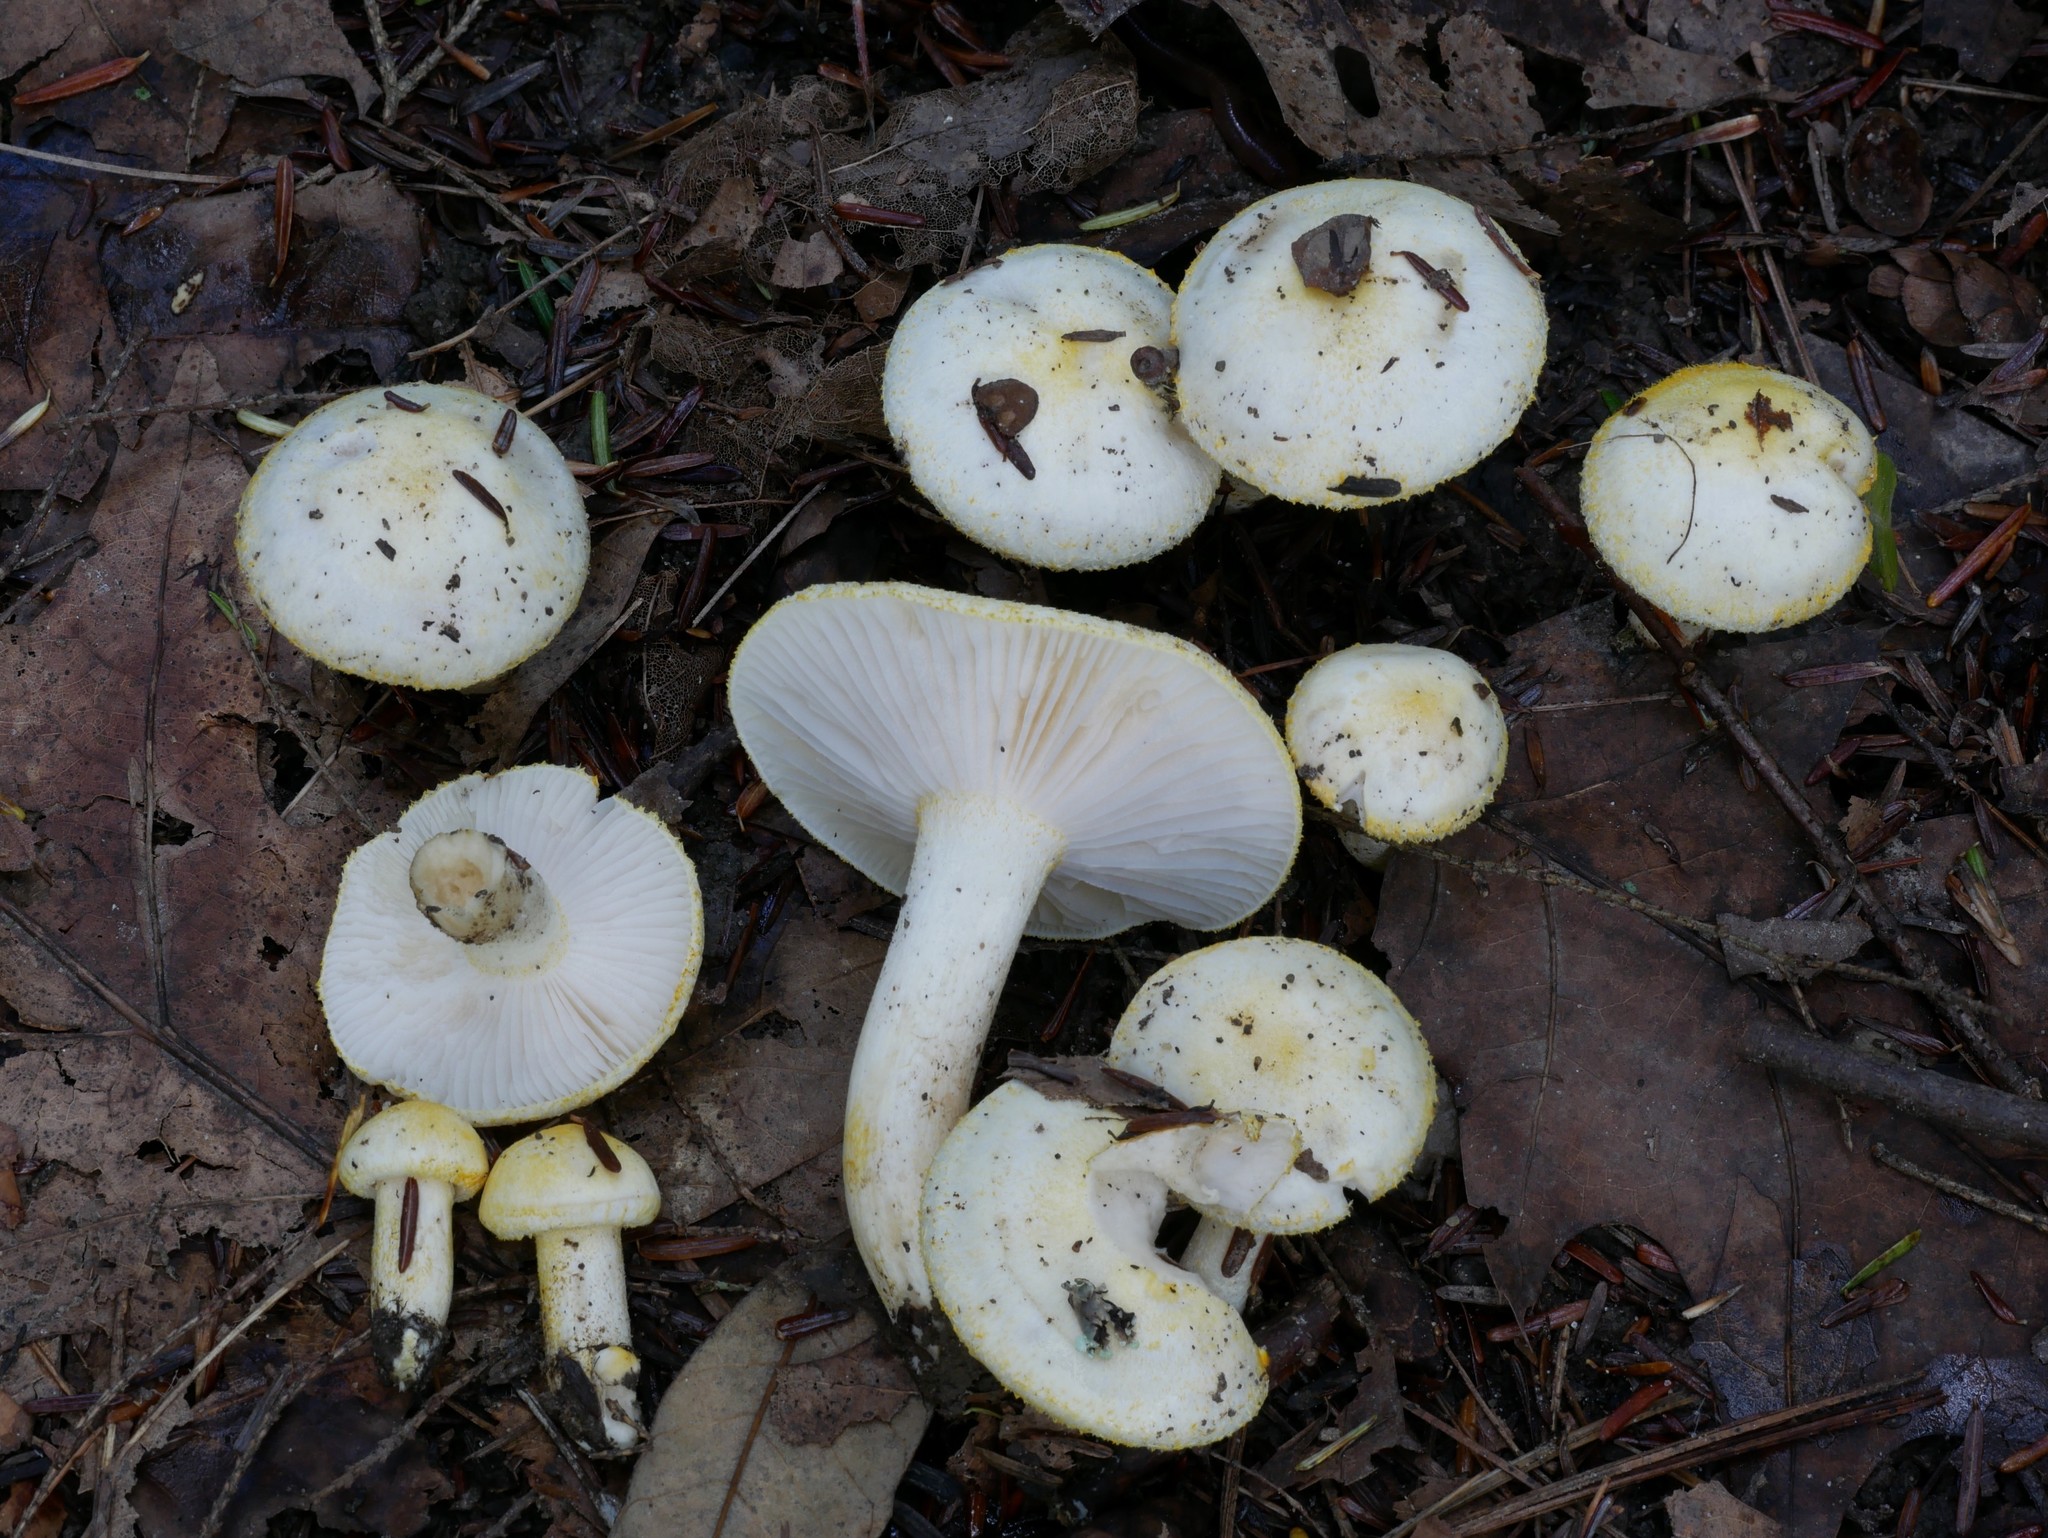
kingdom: Fungi
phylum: Basidiomycota
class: Agaricomycetes
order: Agaricales
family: Hygrophoraceae
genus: Hygrophorus
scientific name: Hygrophorus chrysodon
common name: Gold flecked woodwax
